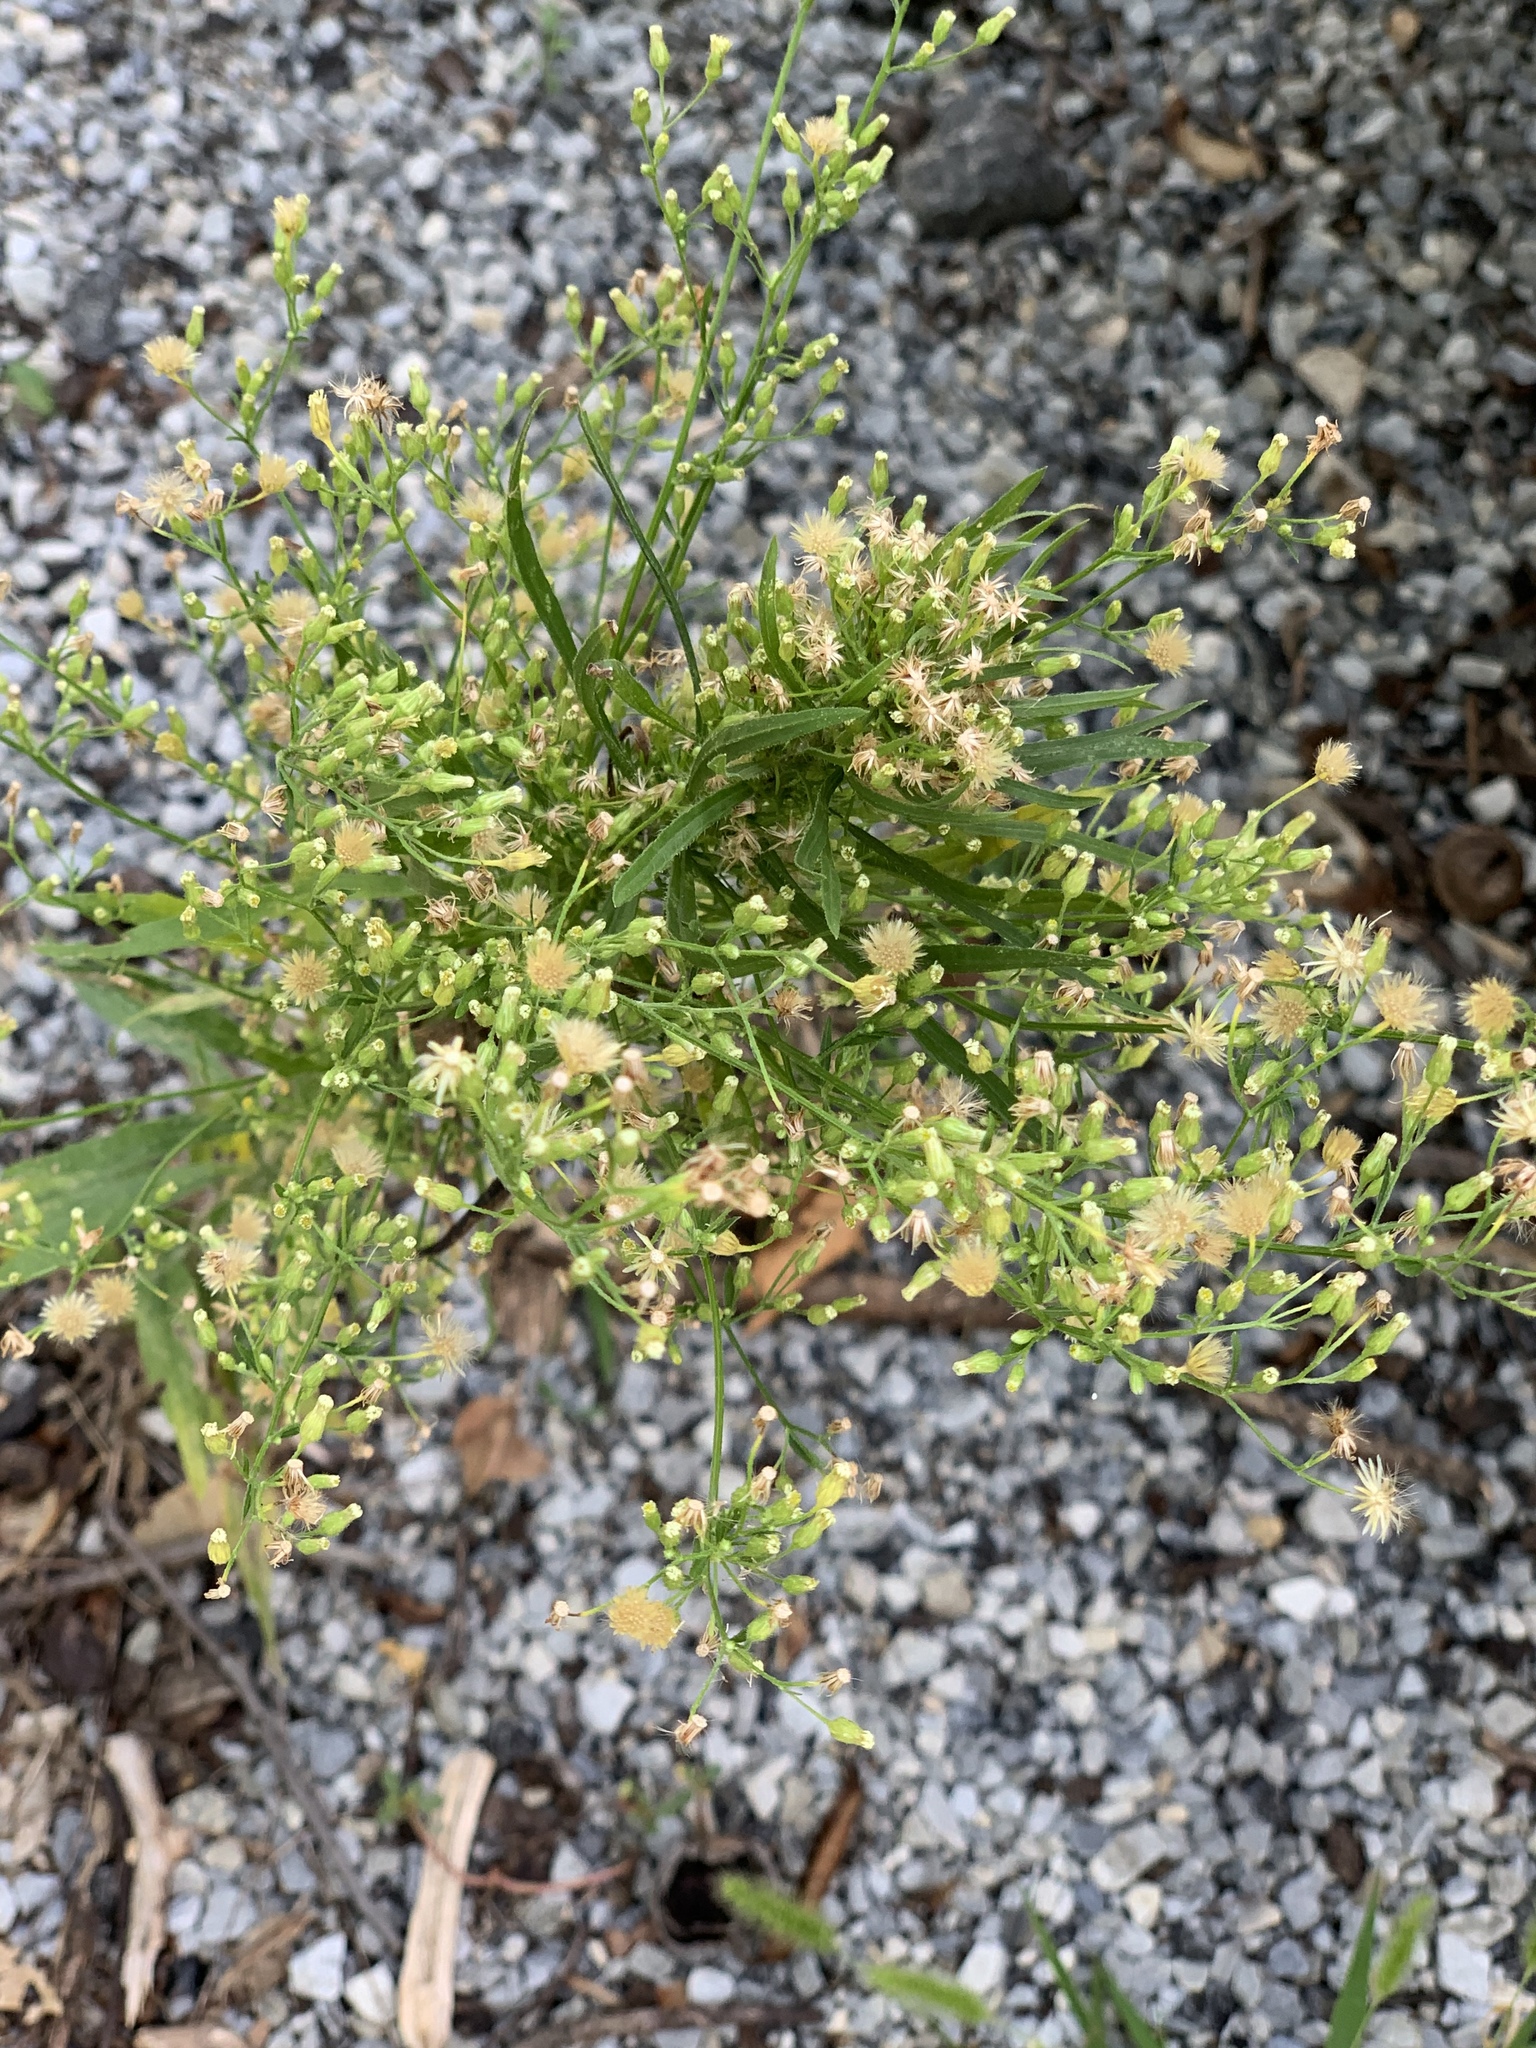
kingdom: Plantae
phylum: Tracheophyta
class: Magnoliopsida
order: Asterales
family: Asteraceae
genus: Erigeron
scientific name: Erigeron canadensis
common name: Canadian fleabane
